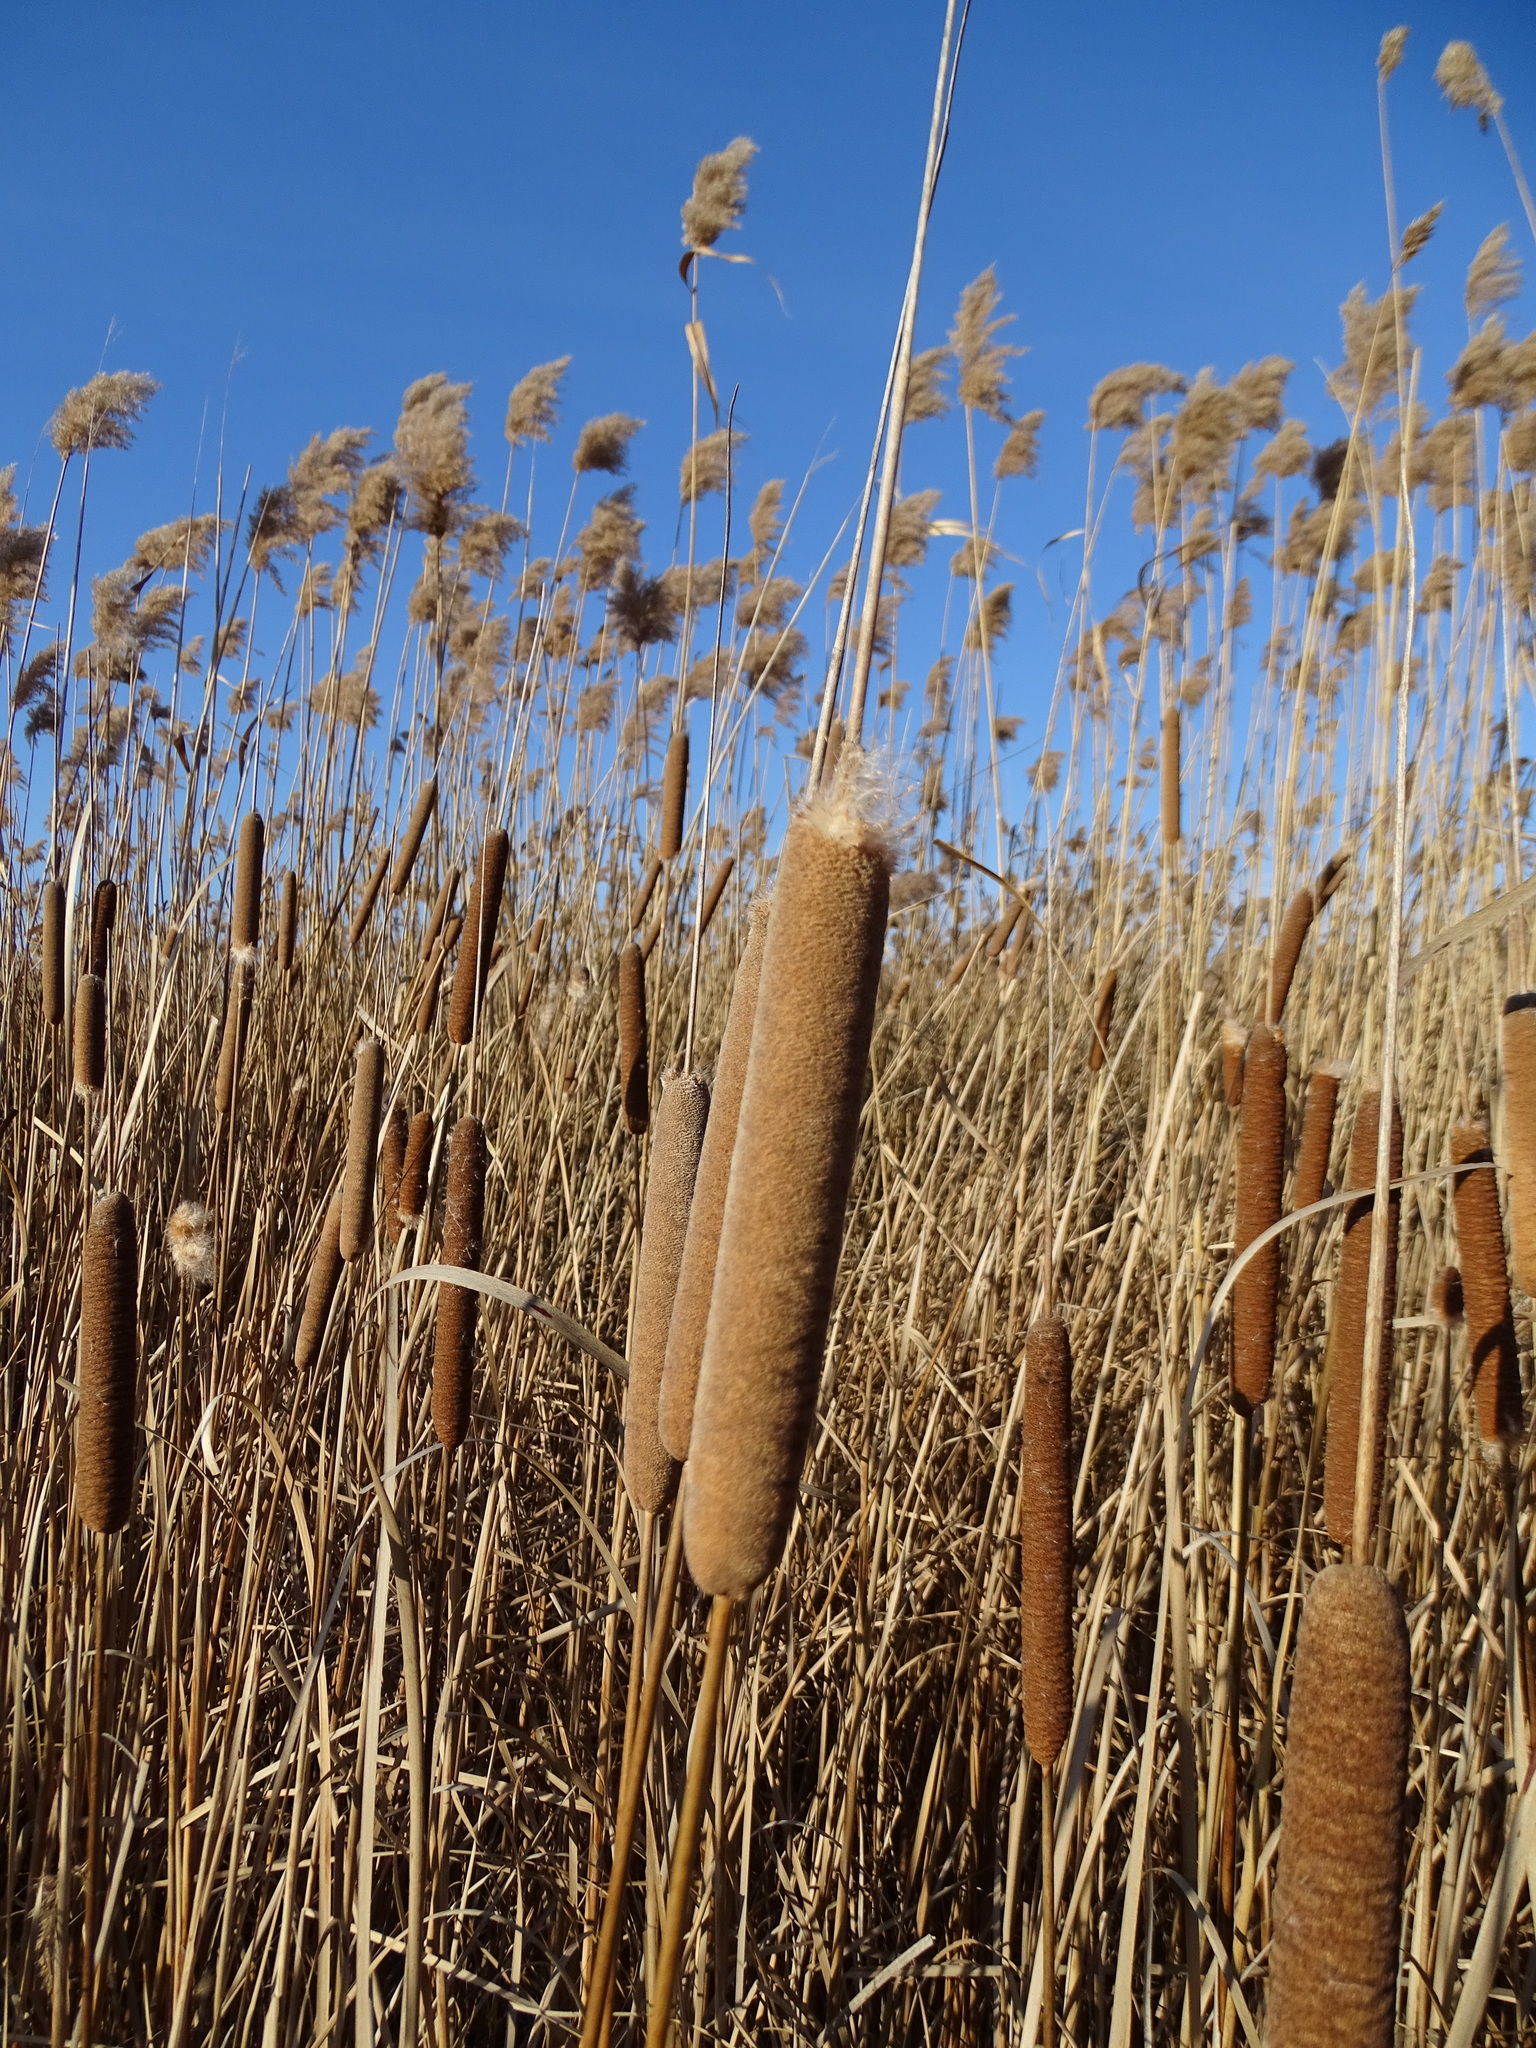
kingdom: Plantae
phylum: Tracheophyta
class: Liliopsida
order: Poales
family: Typhaceae
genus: Typha
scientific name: Typha angustifolia
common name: Lesser bulrush
